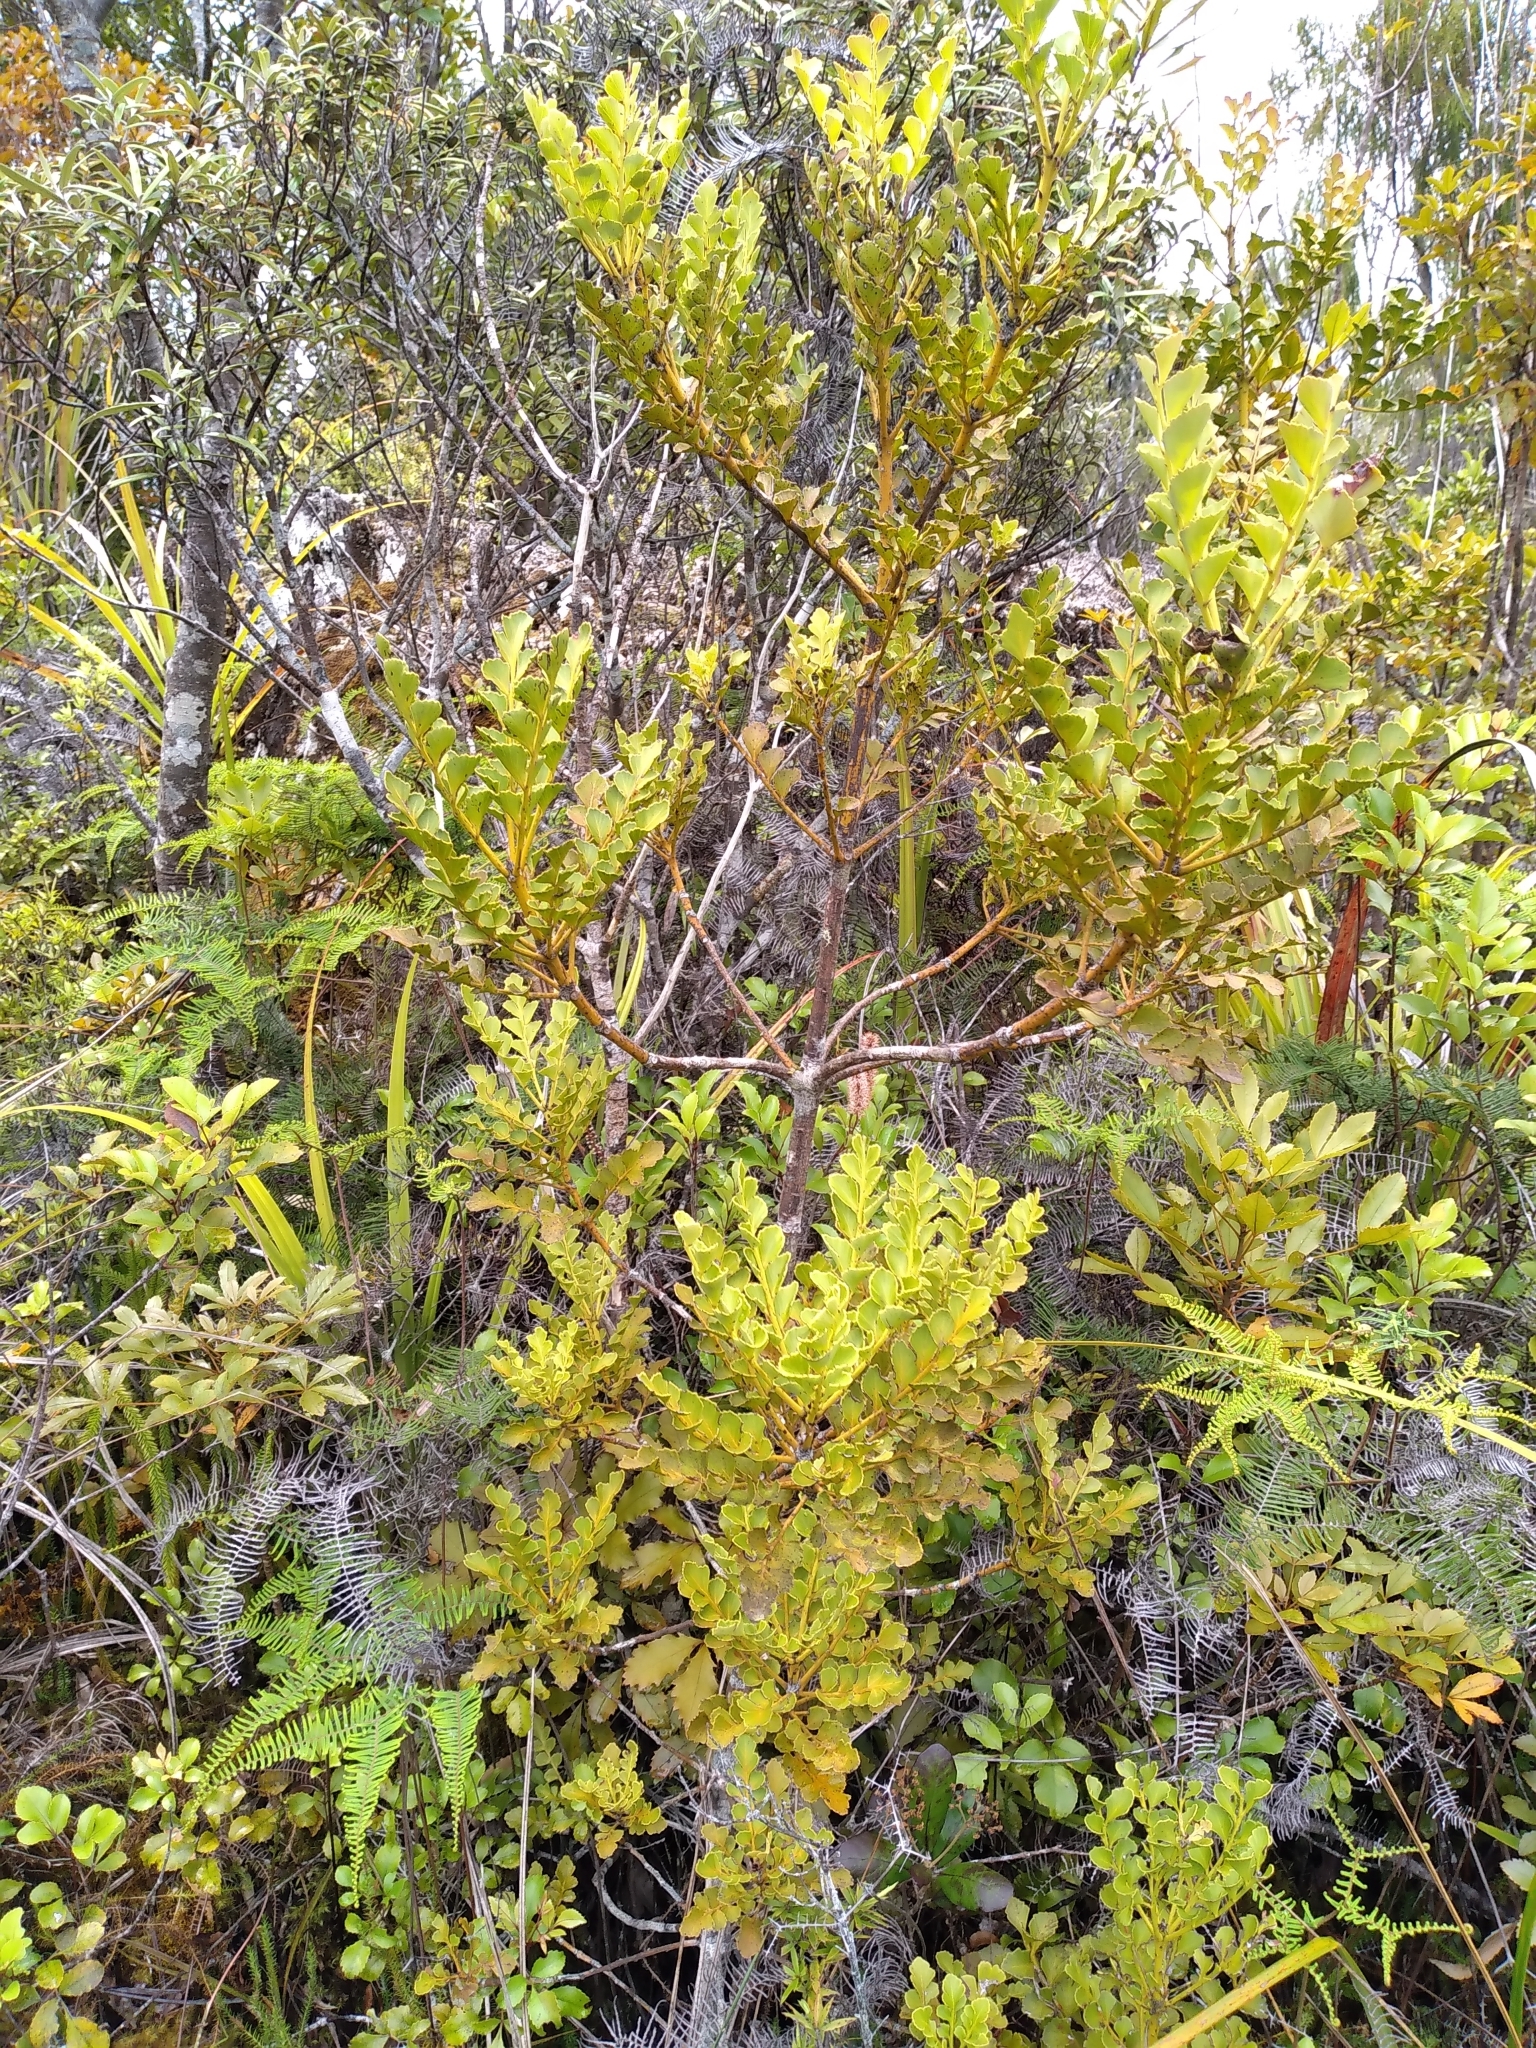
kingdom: Plantae
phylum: Tracheophyta
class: Pinopsida
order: Pinales
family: Phyllocladaceae
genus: Phyllocladus
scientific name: Phyllocladus toatoa
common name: Celery-top pine
